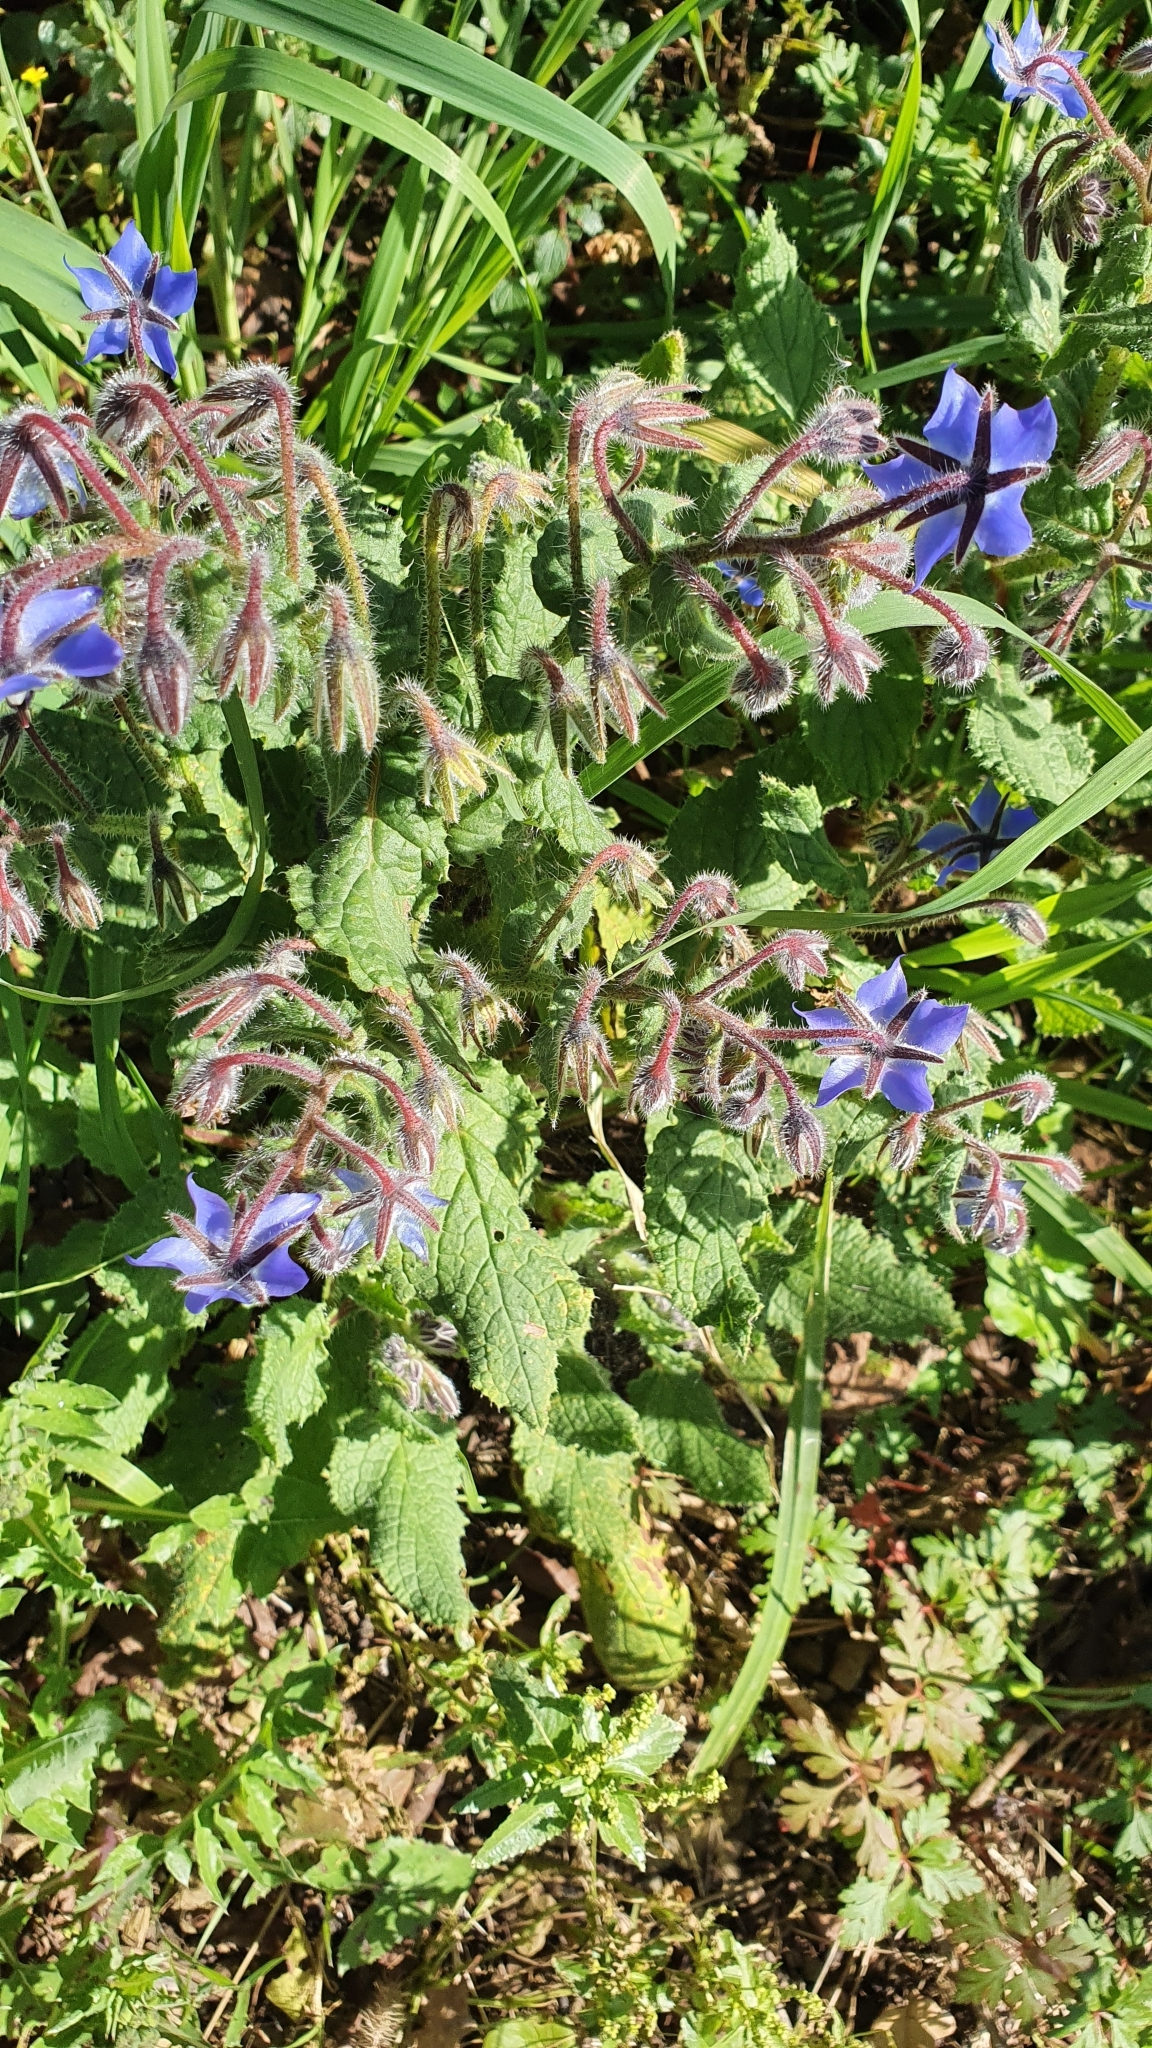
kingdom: Plantae
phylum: Tracheophyta
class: Magnoliopsida
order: Boraginales
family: Boraginaceae
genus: Borago
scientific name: Borago officinalis
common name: Borage
